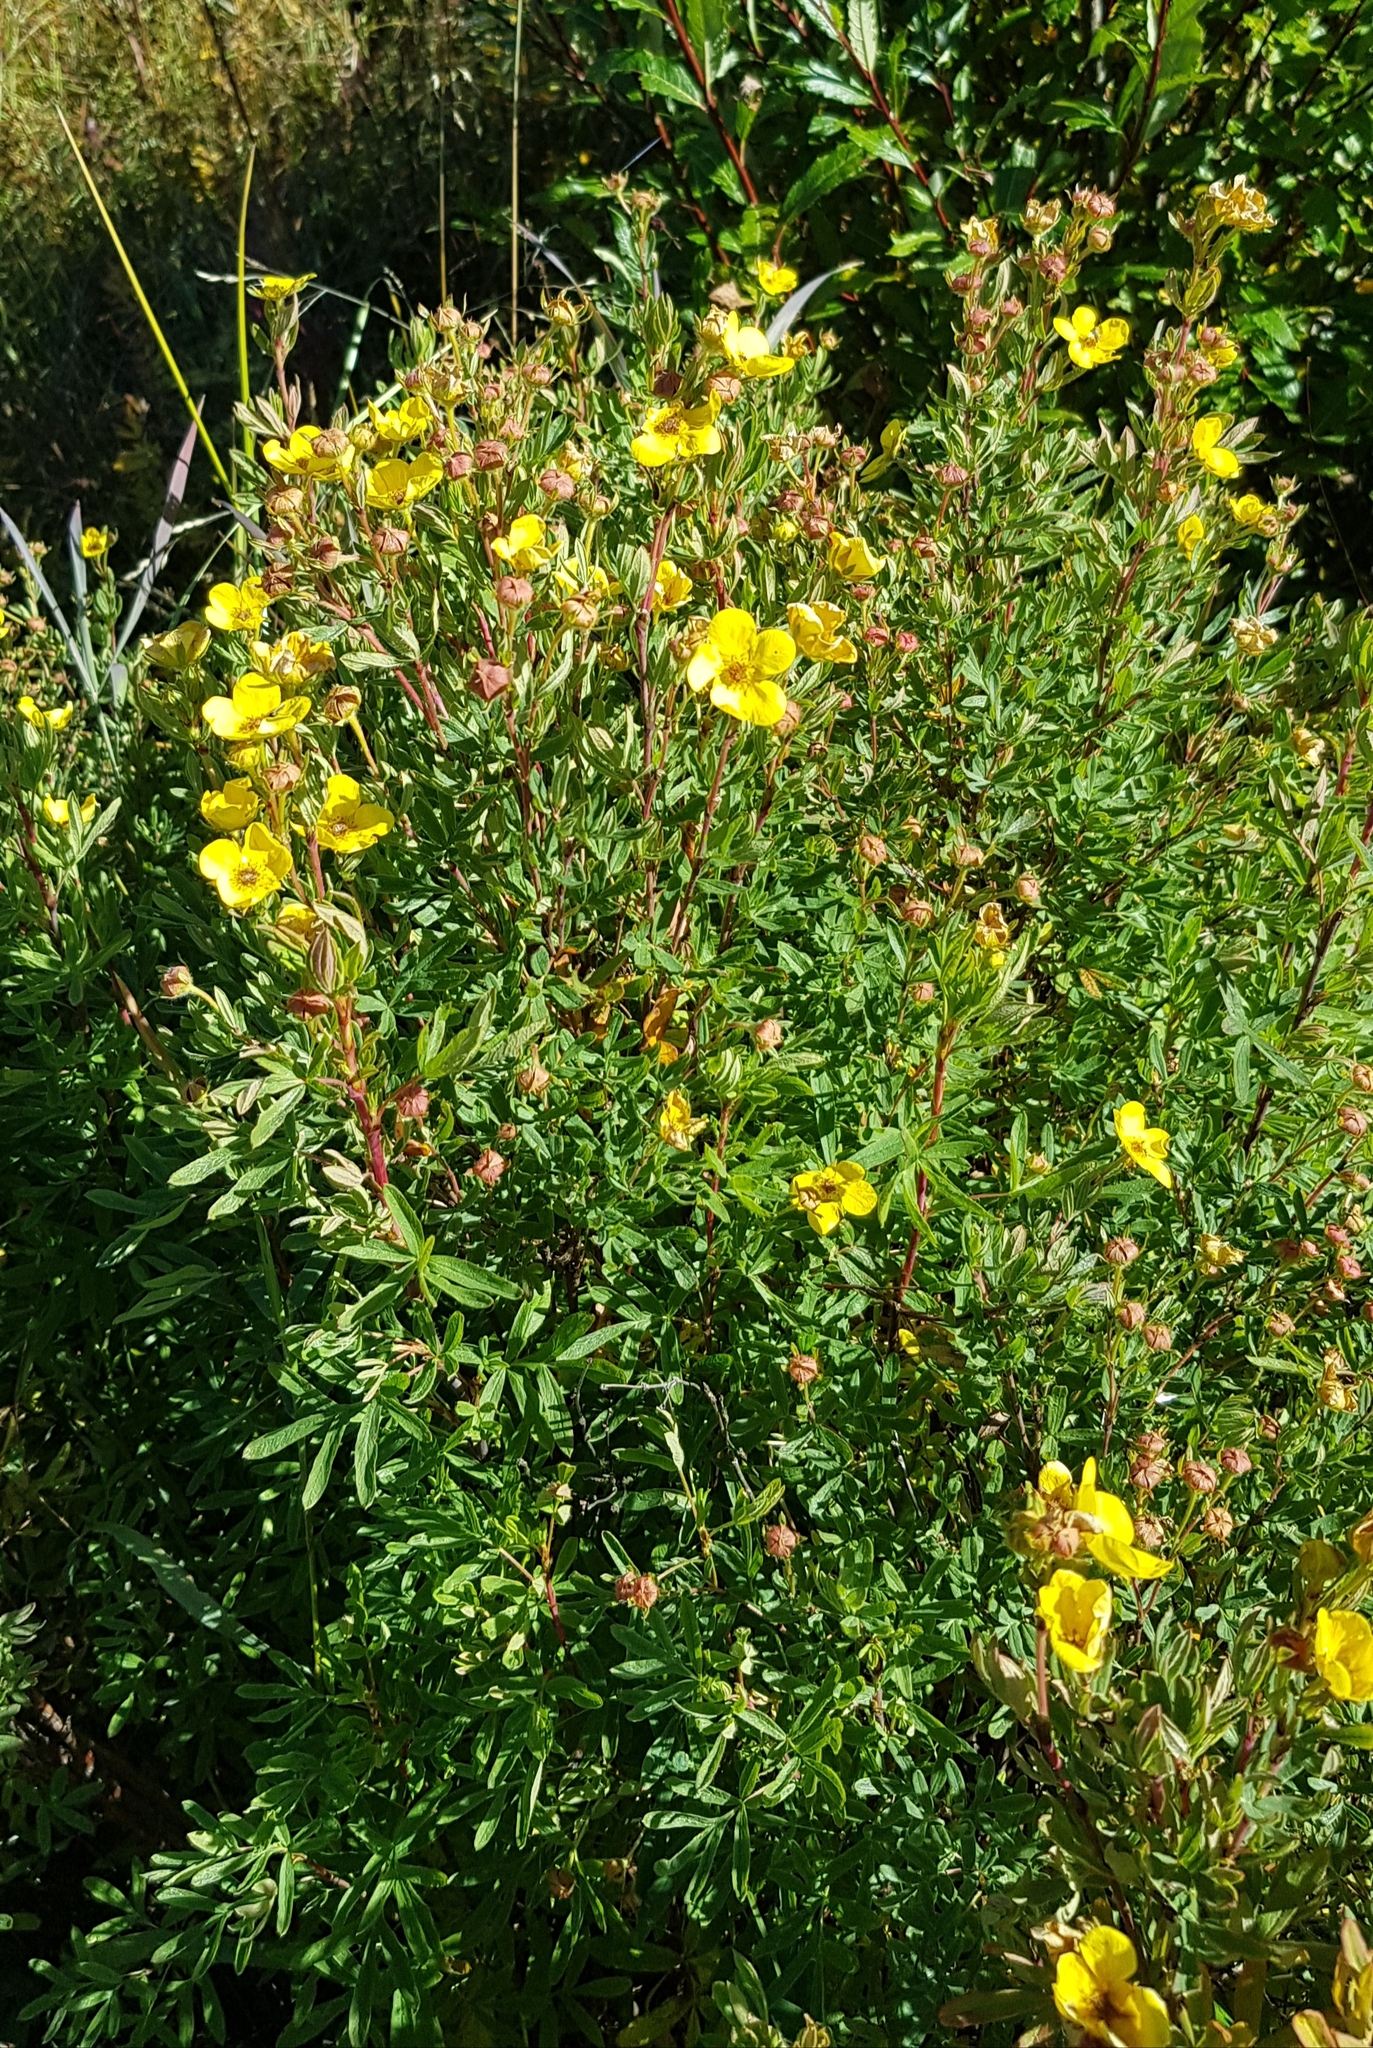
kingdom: Plantae
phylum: Tracheophyta
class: Magnoliopsida
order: Rosales
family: Rosaceae
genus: Dasiphora
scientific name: Dasiphora fruticosa
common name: Shrubby cinquefoil
